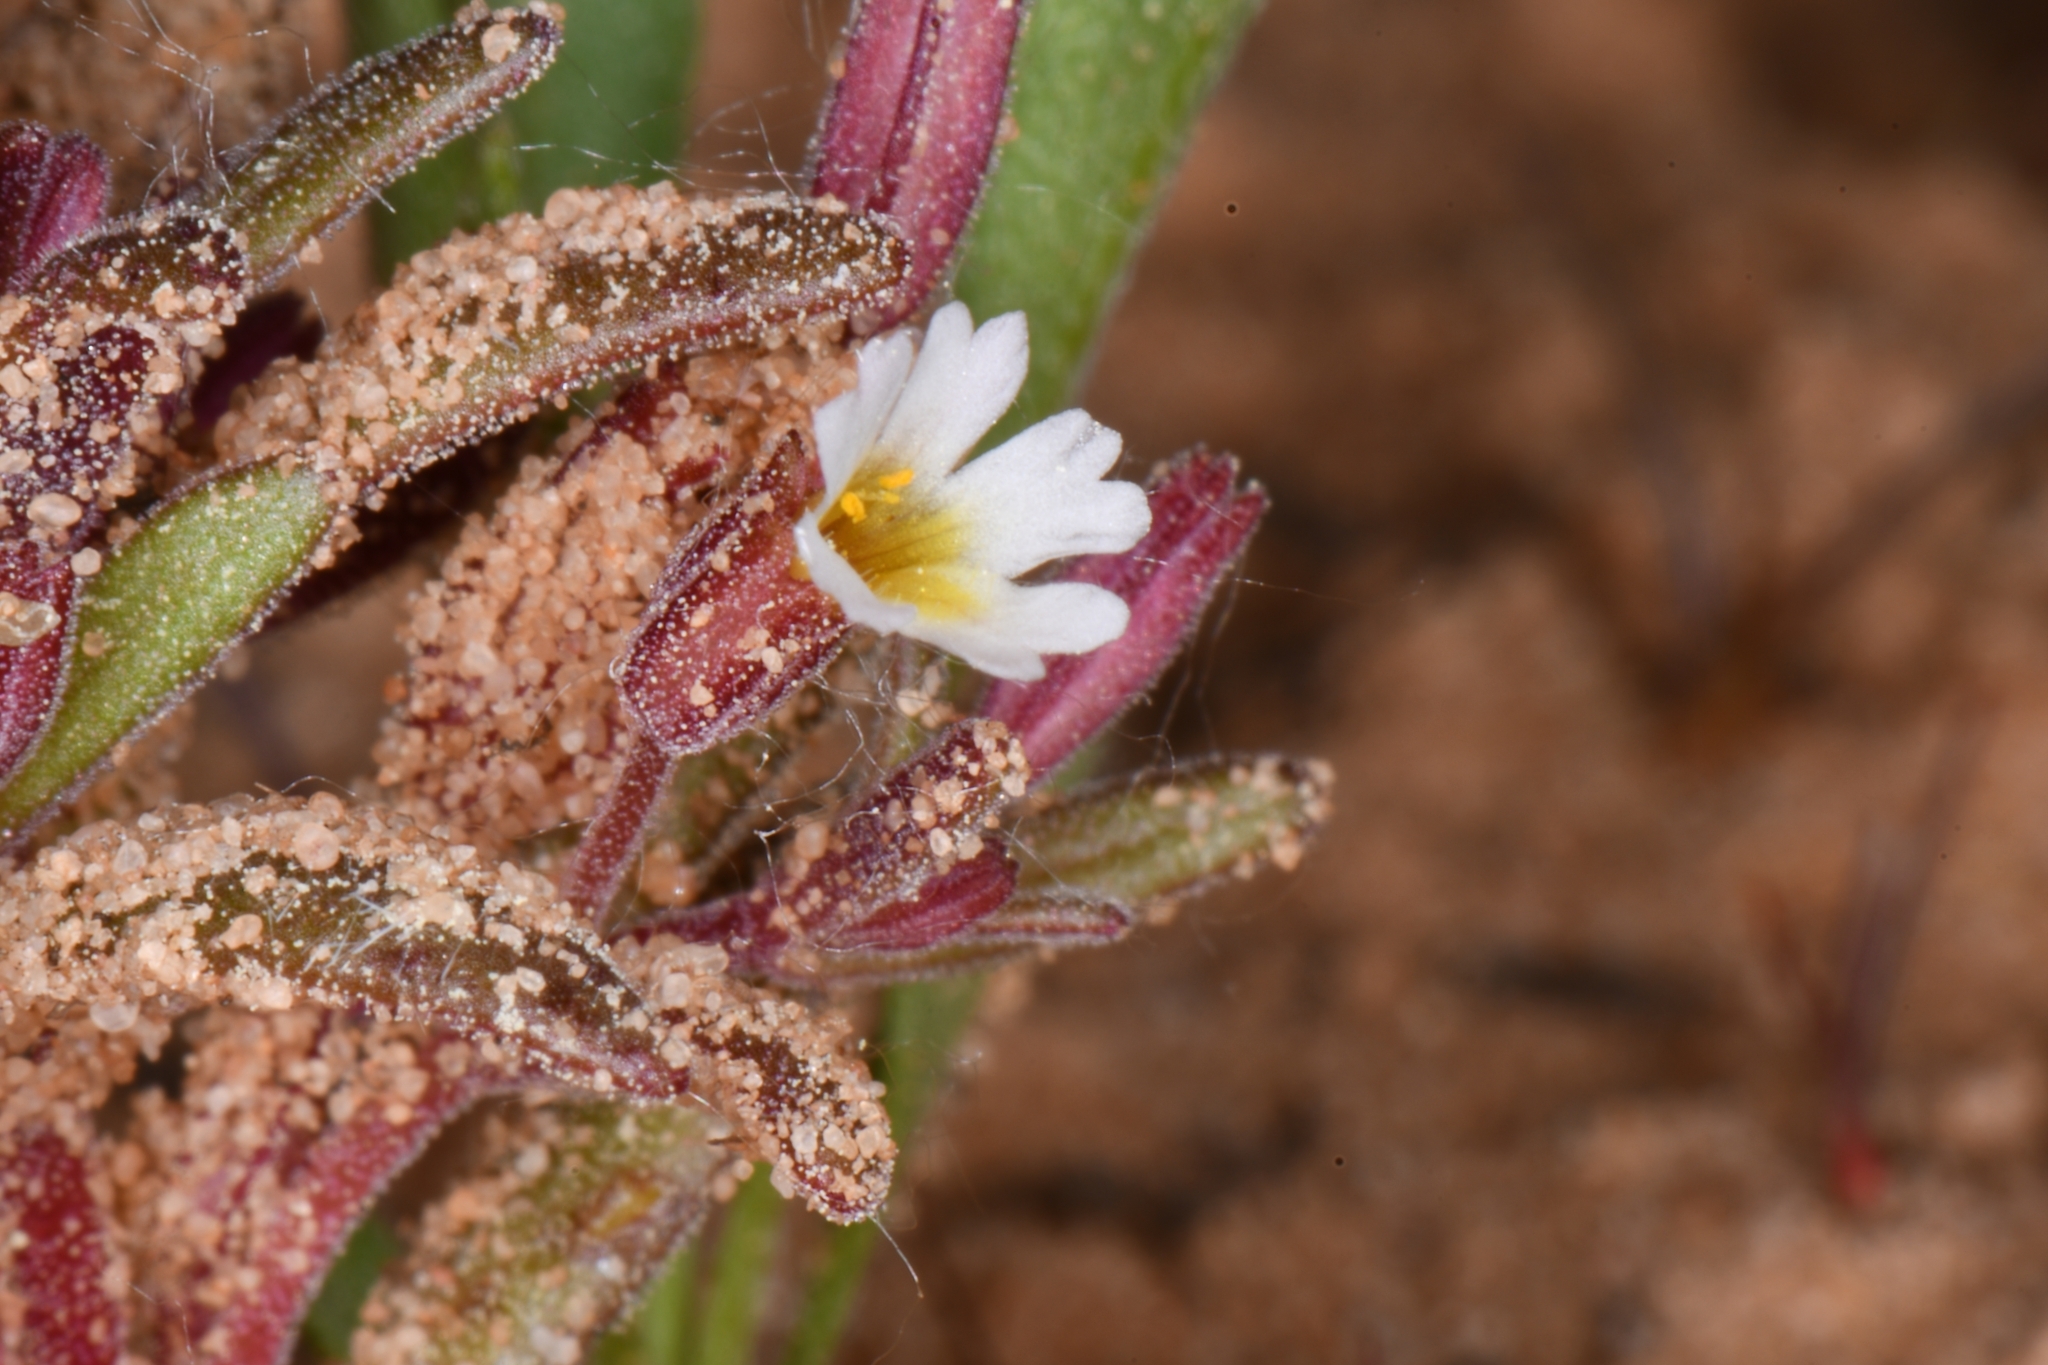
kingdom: Plantae
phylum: Tracheophyta
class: Magnoliopsida
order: Lamiales
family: Phrymaceae
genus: Erythranthe
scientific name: Erythranthe rubella
